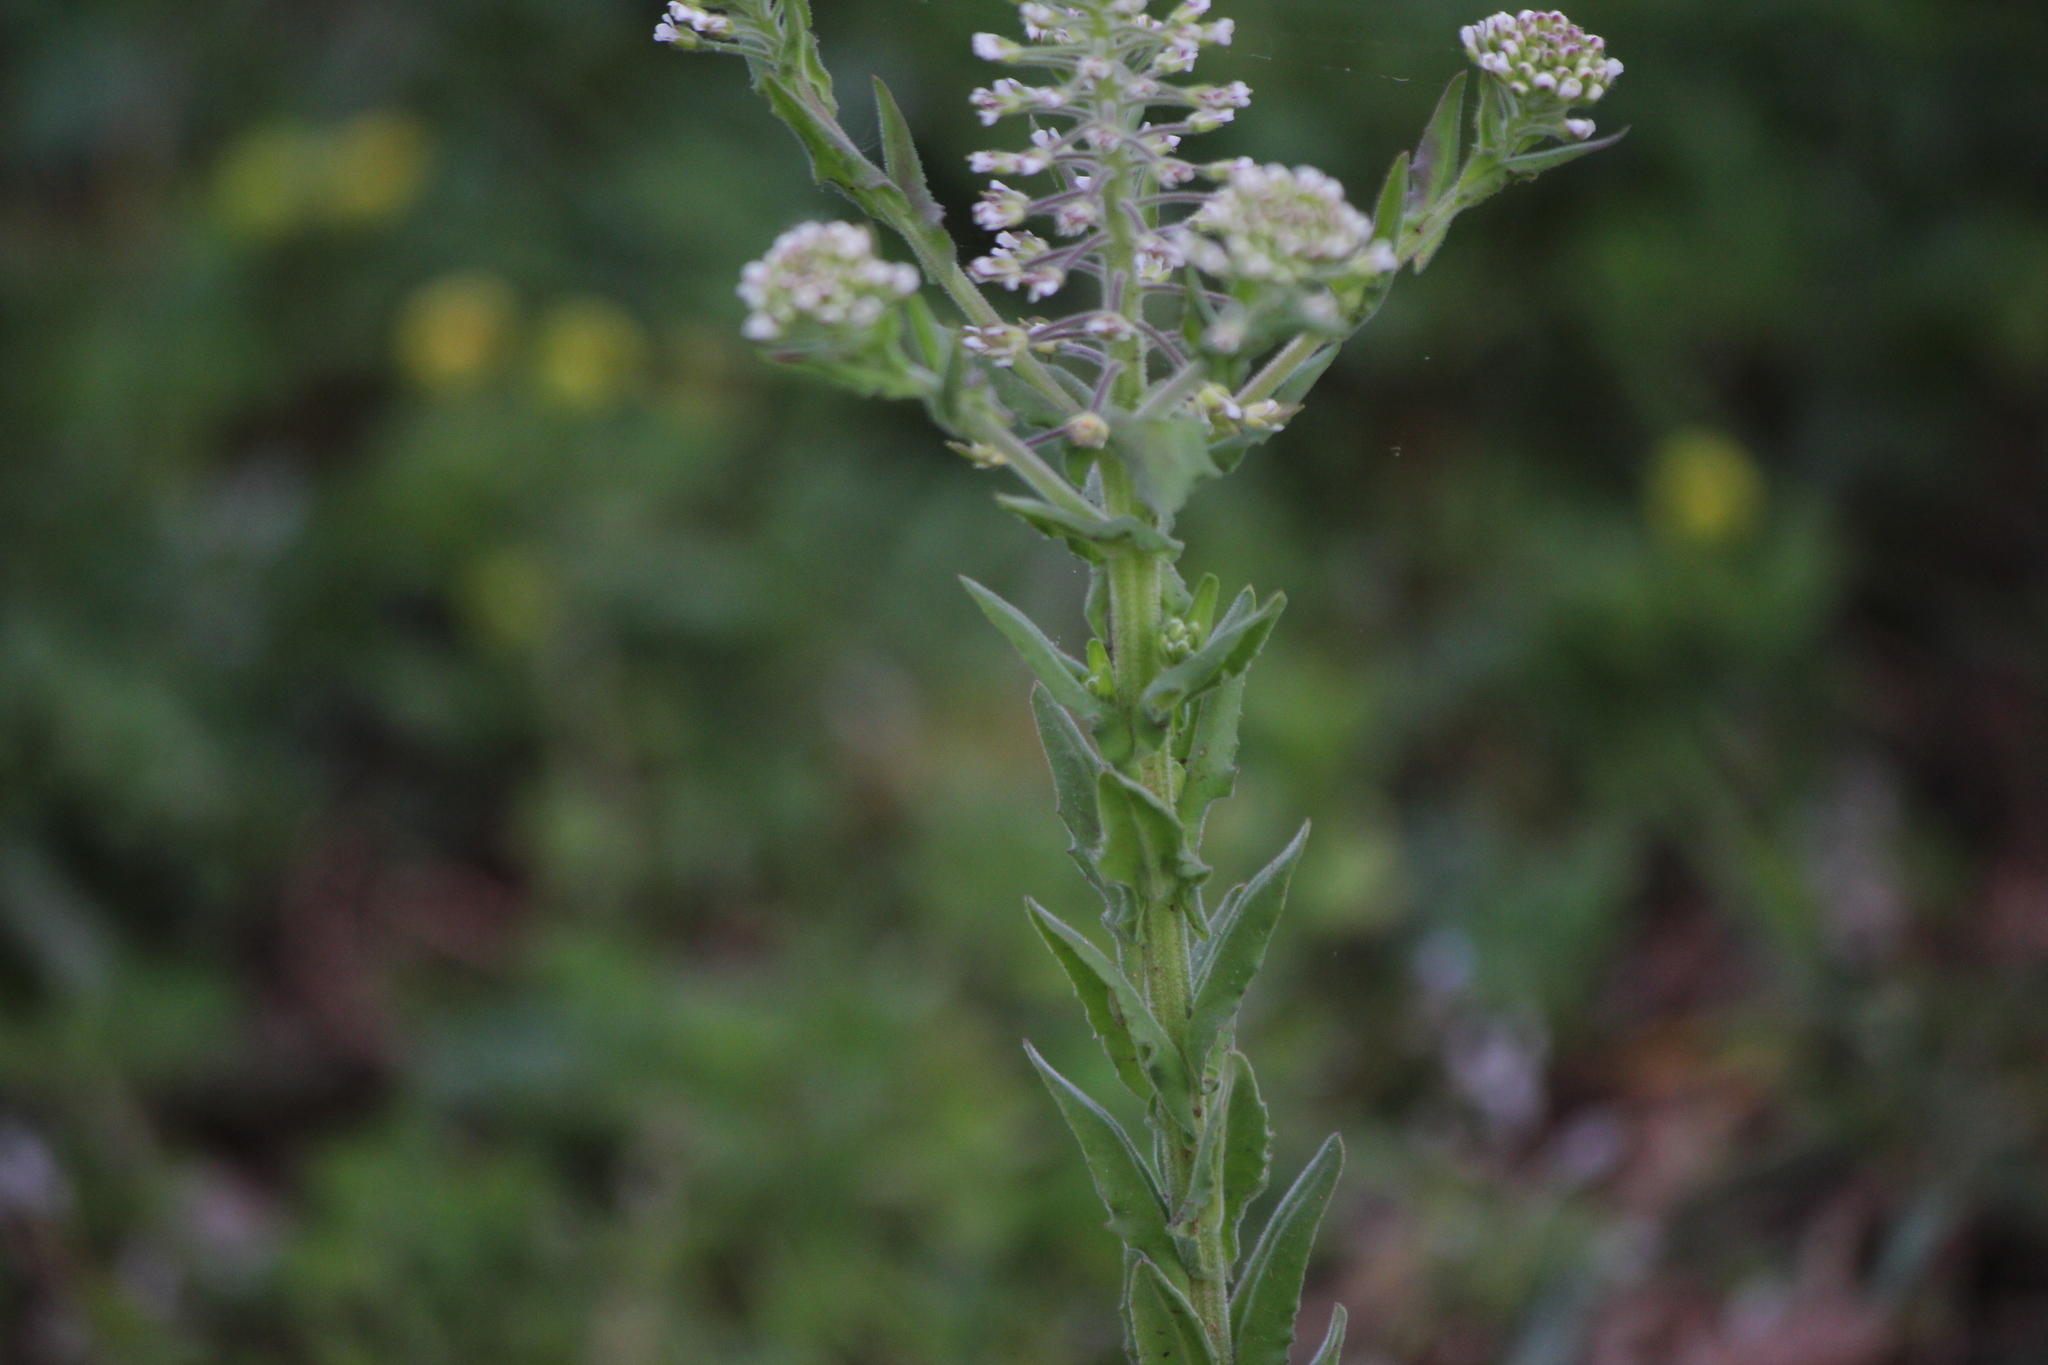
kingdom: Plantae
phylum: Tracheophyta
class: Magnoliopsida
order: Brassicales
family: Brassicaceae
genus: Lepidium
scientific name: Lepidium campestre
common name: Field pepperwort
